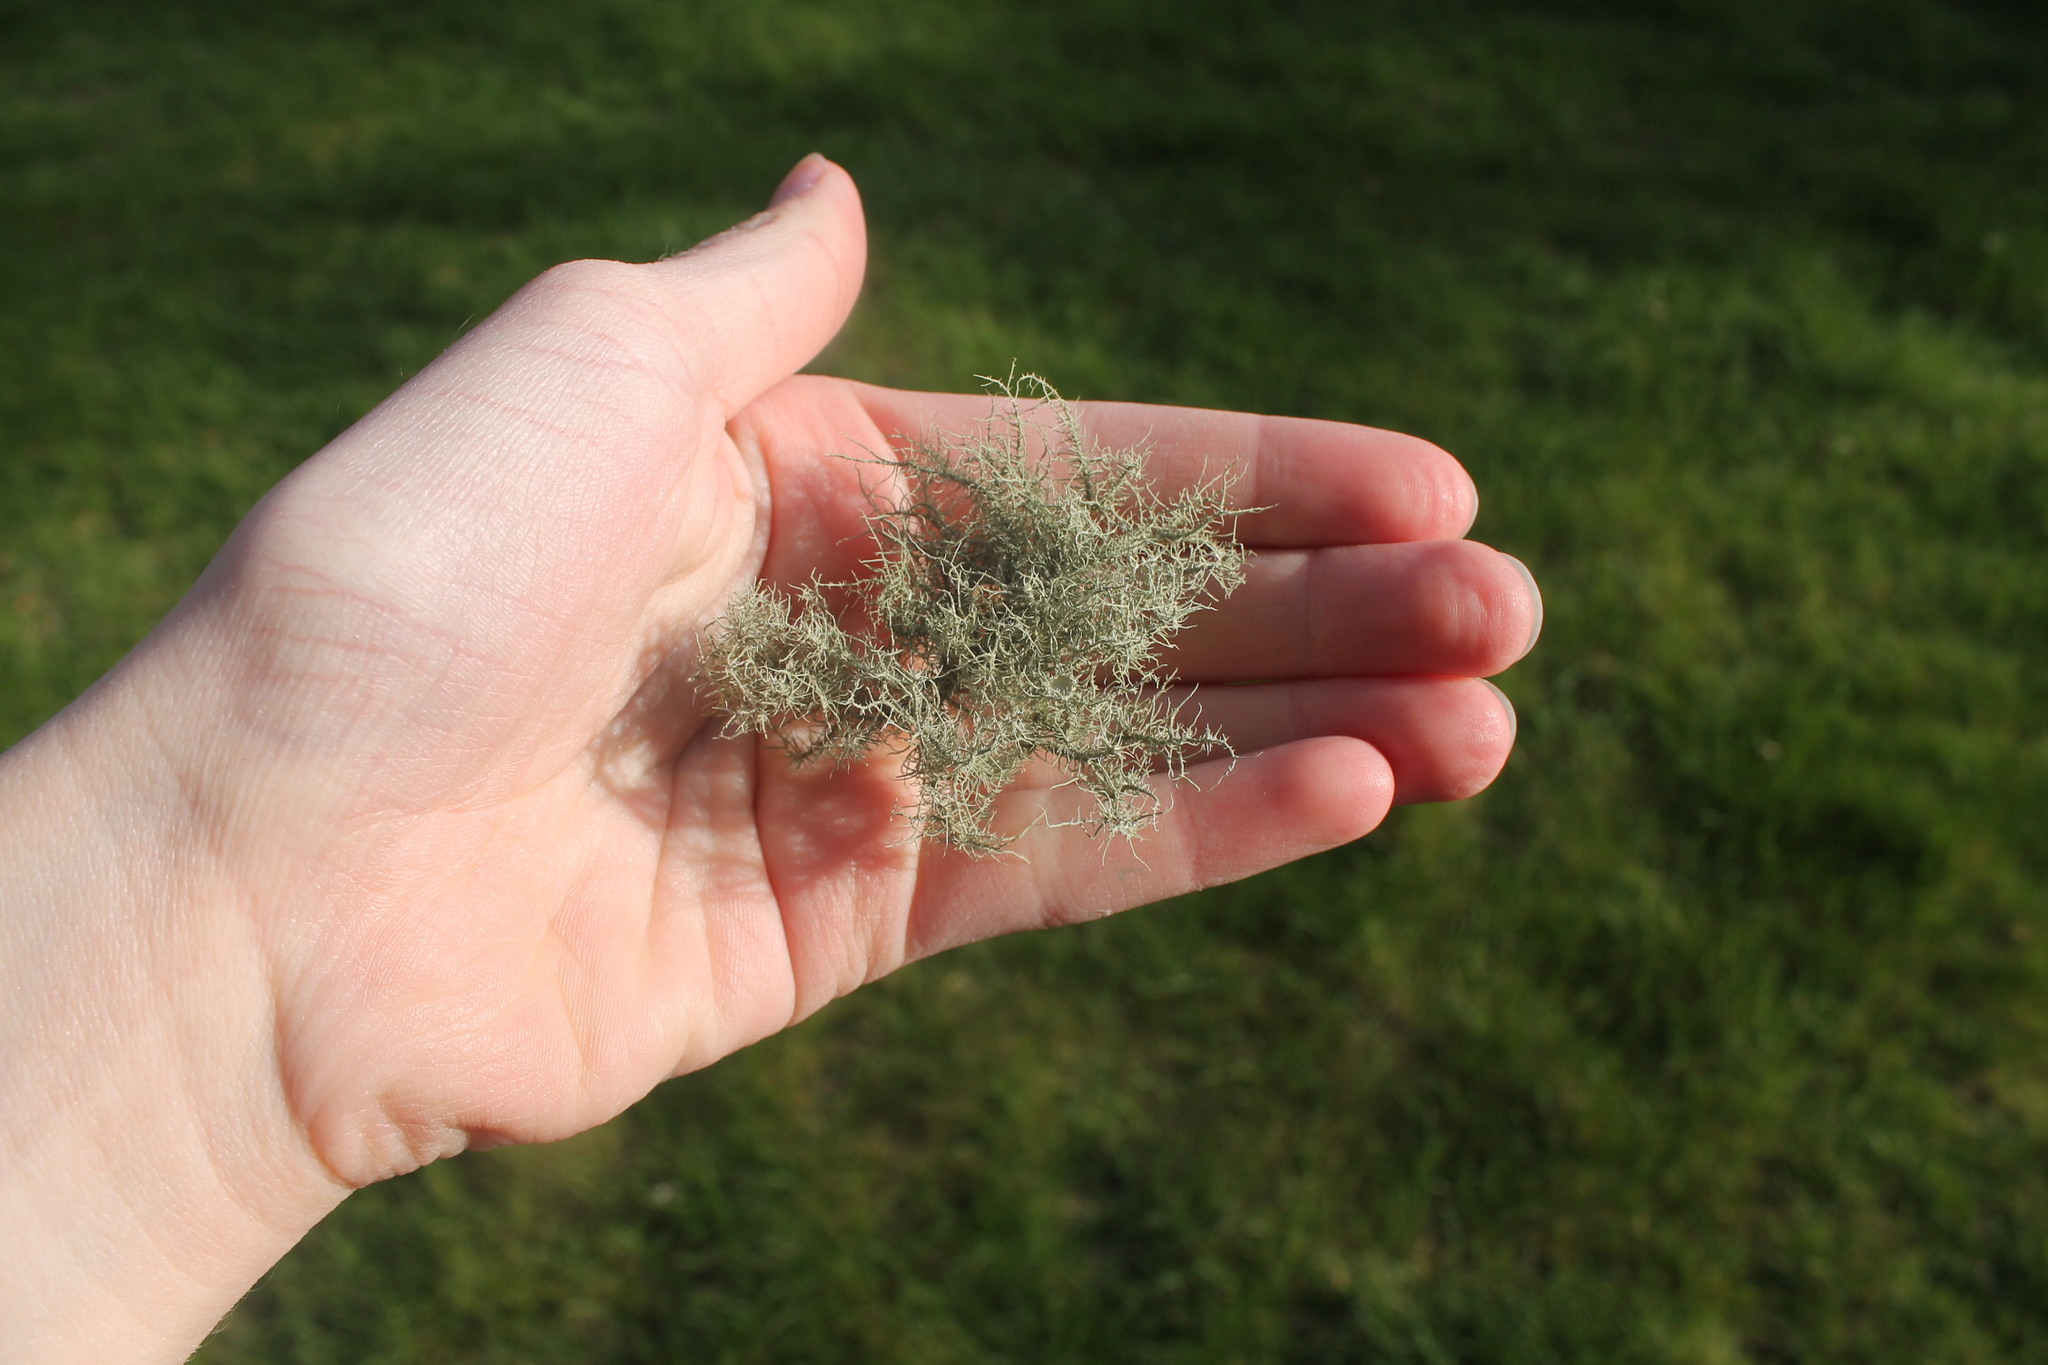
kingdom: Fungi
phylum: Ascomycota
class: Lecanoromycetes
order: Lecanorales
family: Parmeliaceae
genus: Usnea
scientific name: Usnea strigosa
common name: Bushy beard lichen
